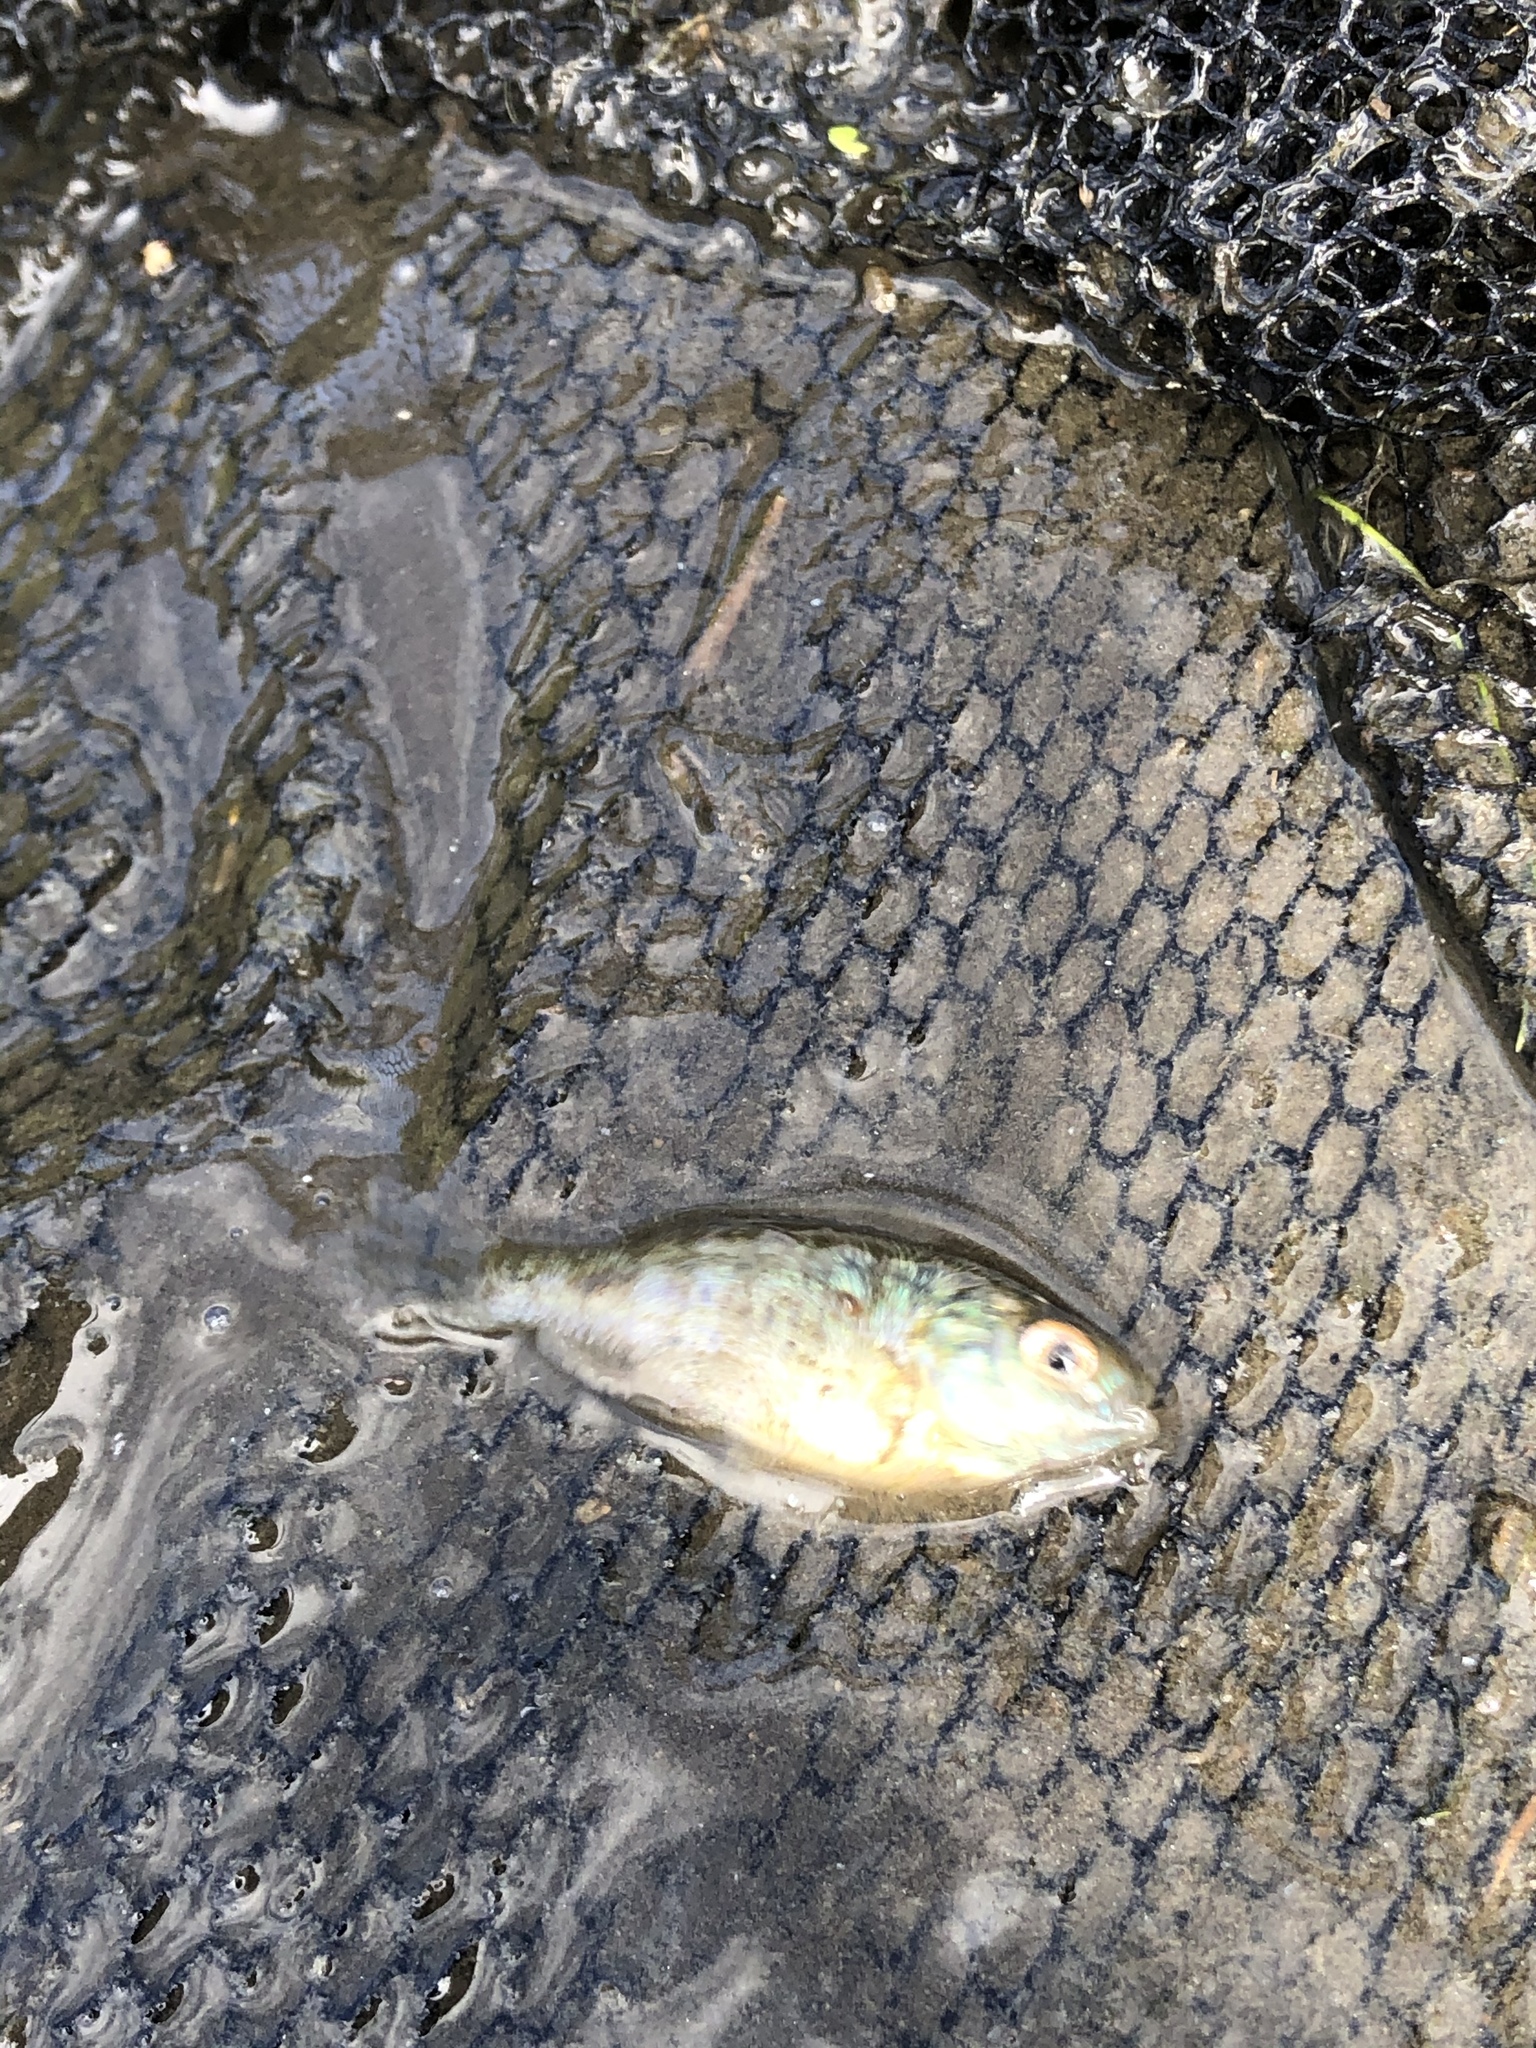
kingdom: Animalia
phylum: Chordata
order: Perciformes
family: Centrarchidae
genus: Lepomis
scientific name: Lepomis gibbosus
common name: Pumpkinseed
